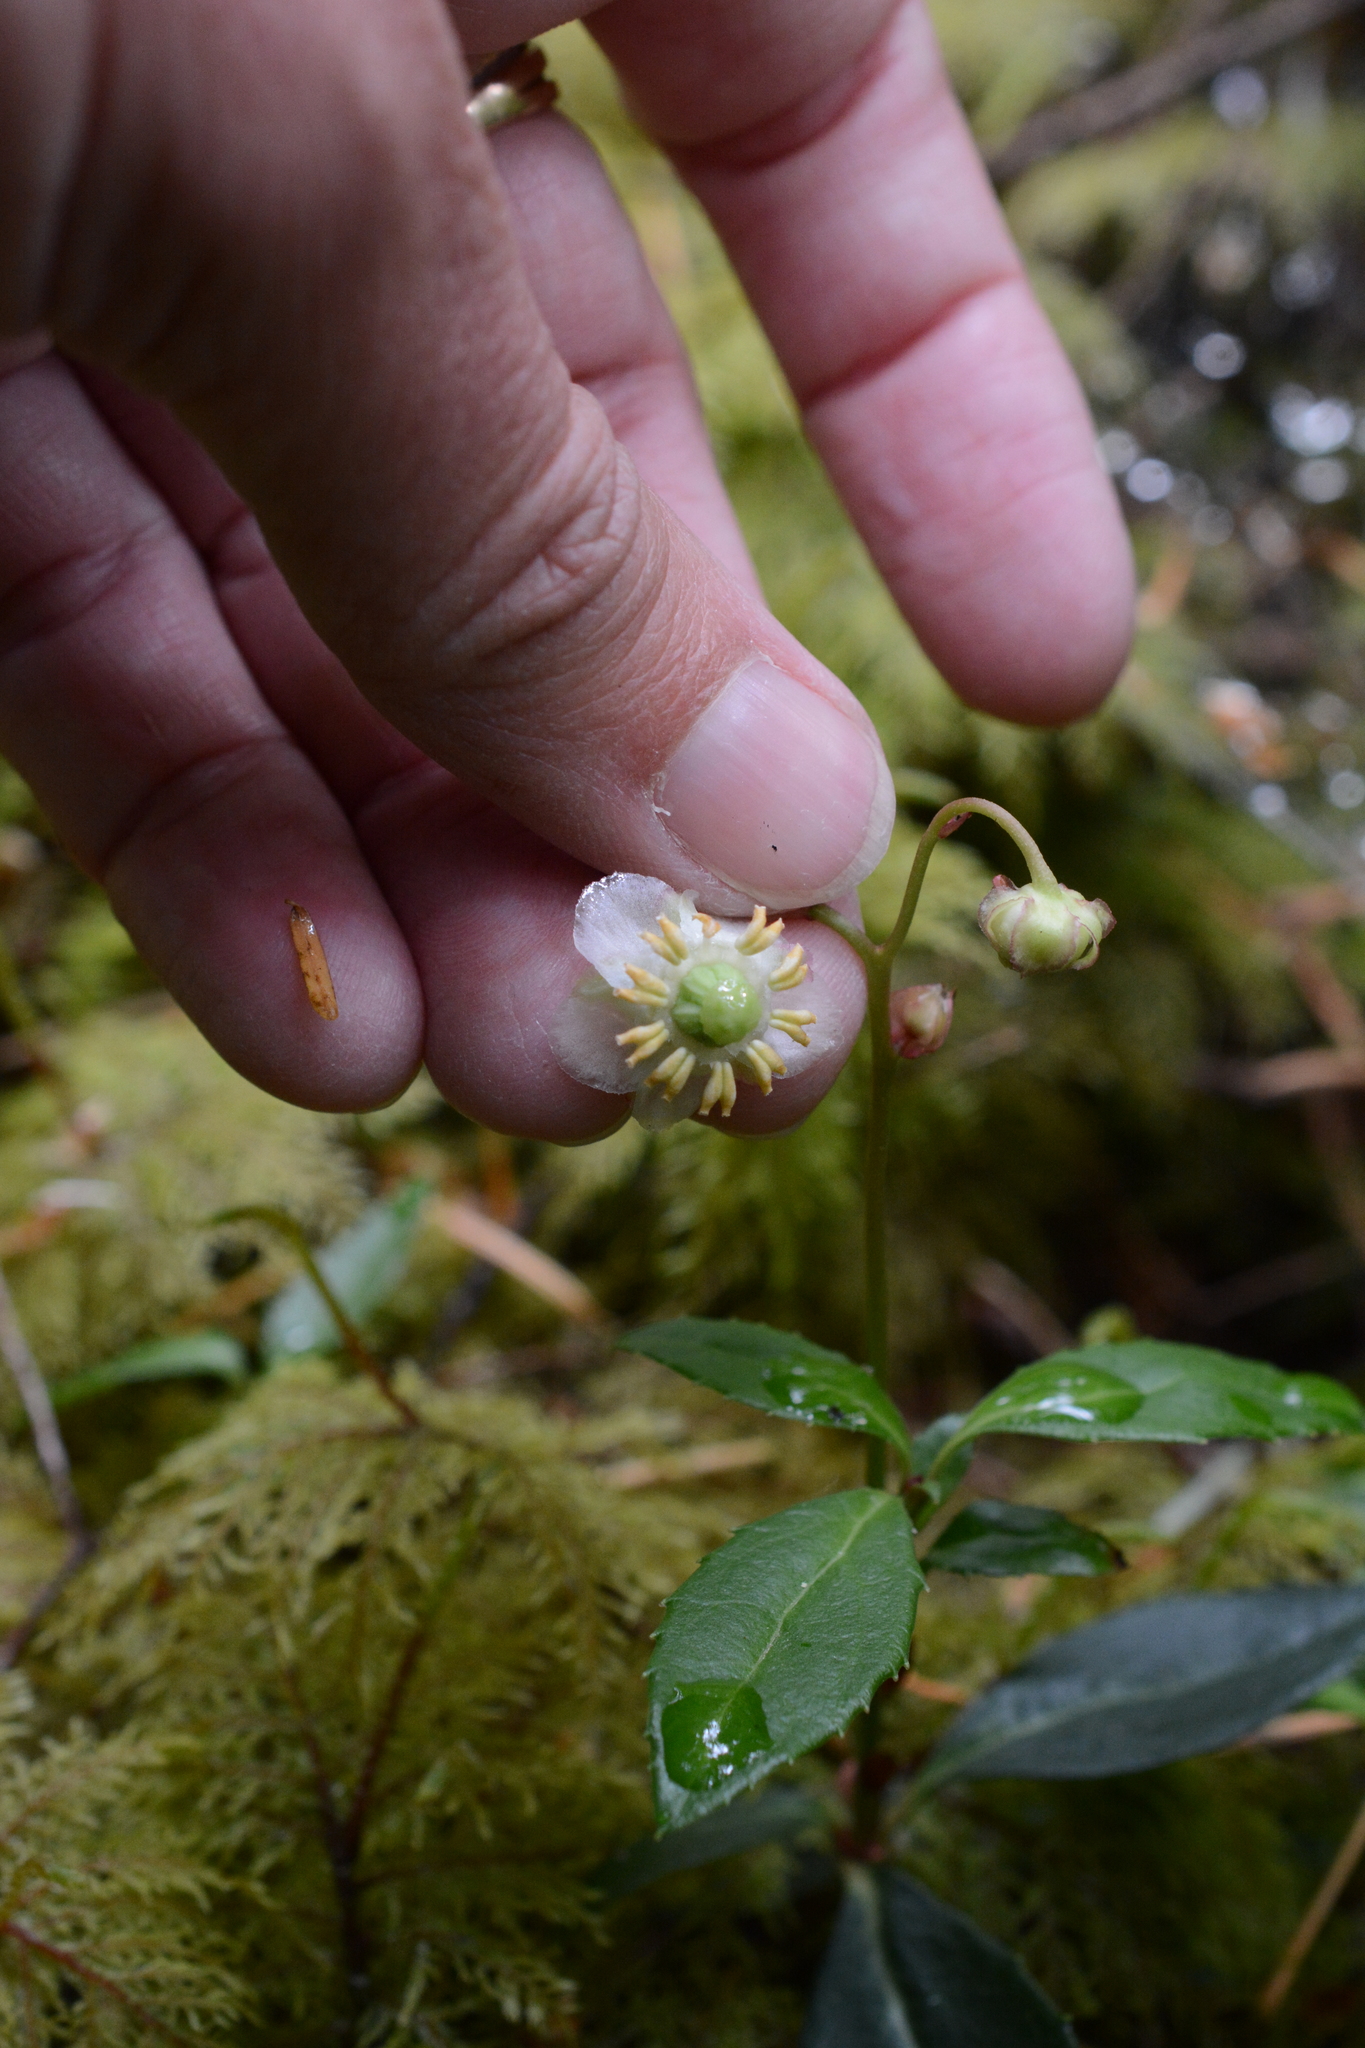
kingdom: Plantae
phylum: Tracheophyta
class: Magnoliopsida
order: Ericales
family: Ericaceae
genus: Chimaphila
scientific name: Chimaphila menziesii
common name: Menzies' pipsissewa
